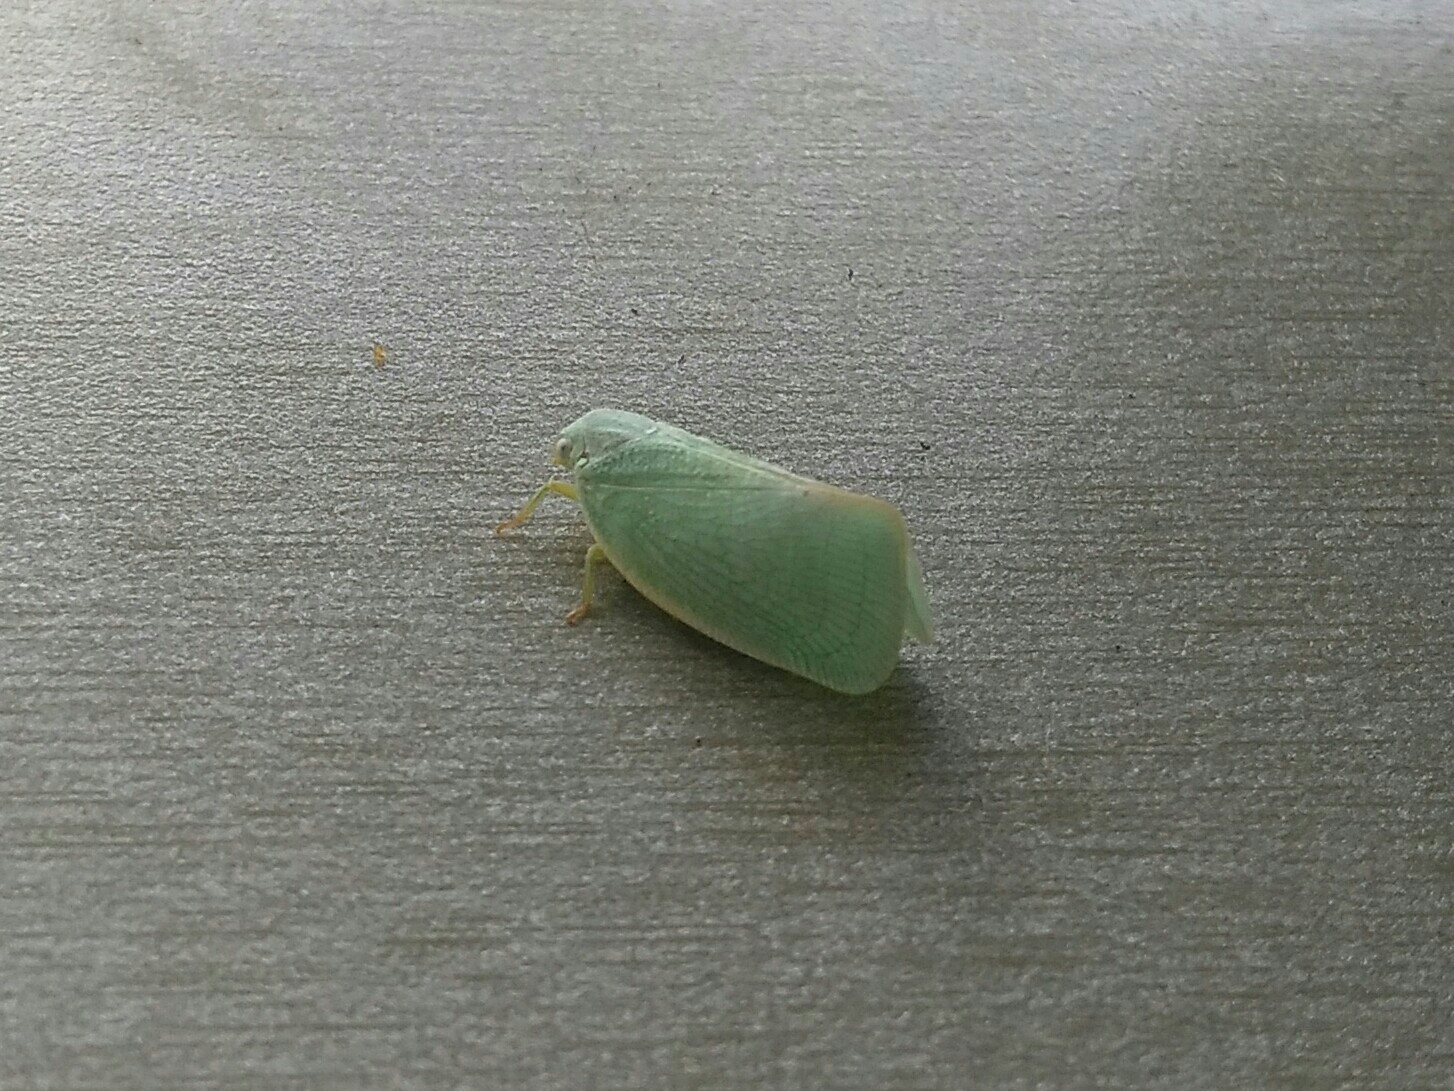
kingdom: Animalia
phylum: Arthropoda
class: Insecta
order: Hemiptera
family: Flatidae
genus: Flatormenis
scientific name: Flatormenis proxima
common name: Northern flatid planthopper
